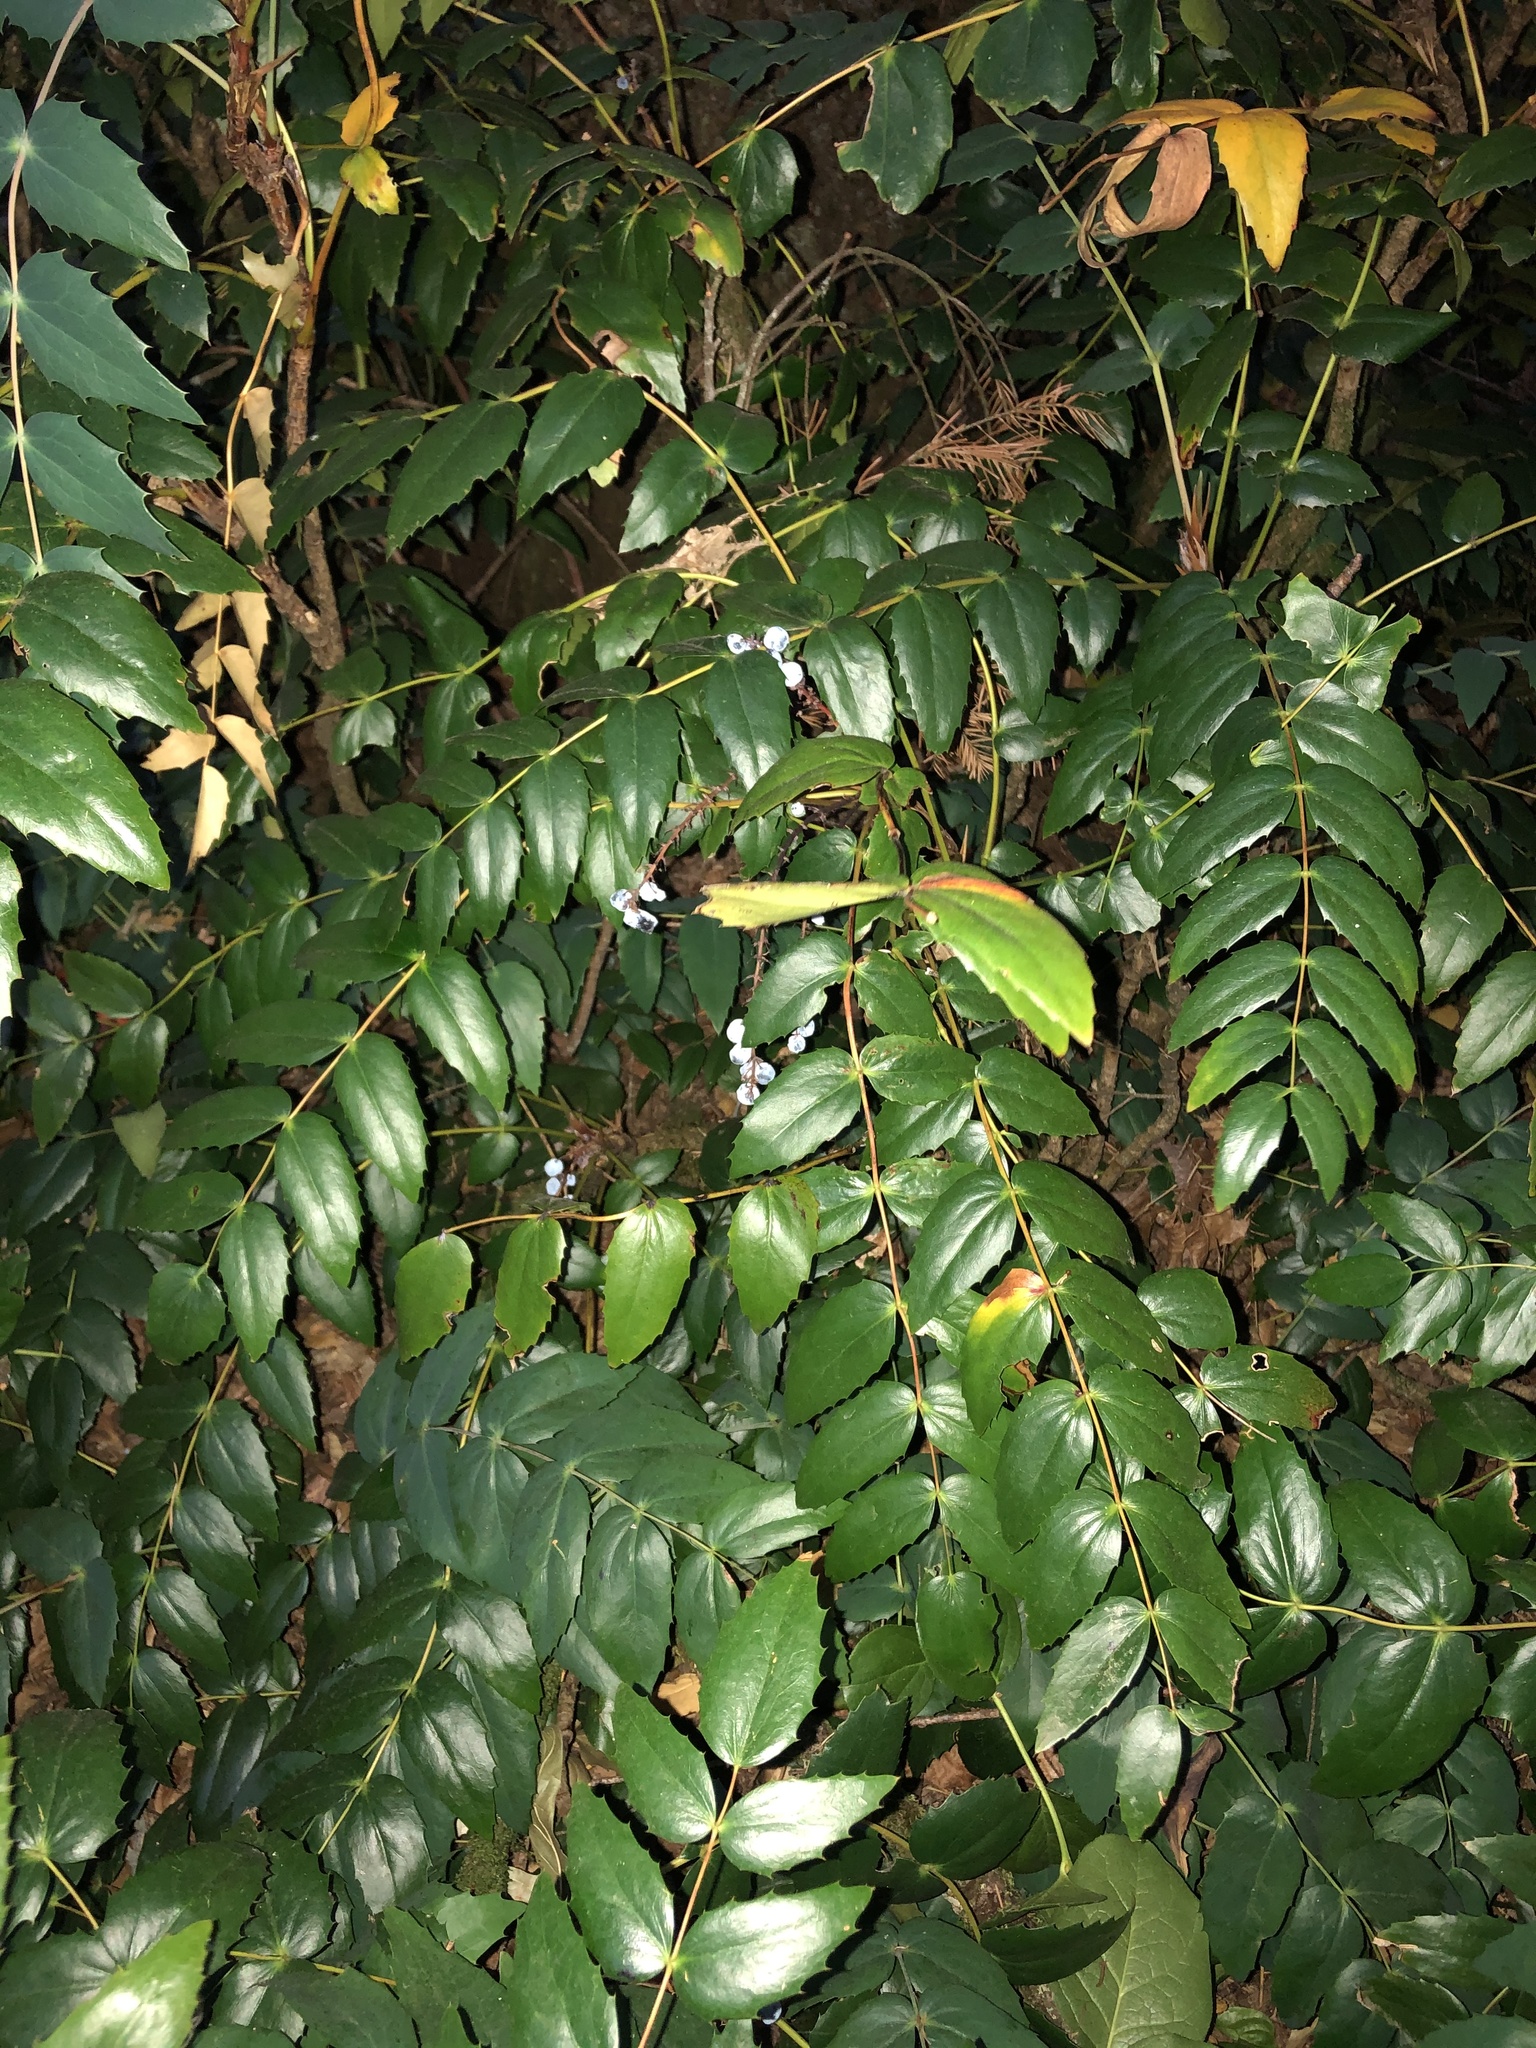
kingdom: Plantae
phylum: Tracheophyta
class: Magnoliopsida
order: Ranunculales
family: Berberidaceae
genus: Mahonia
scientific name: Mahonia nervosa
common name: Cascade oregon-grape
